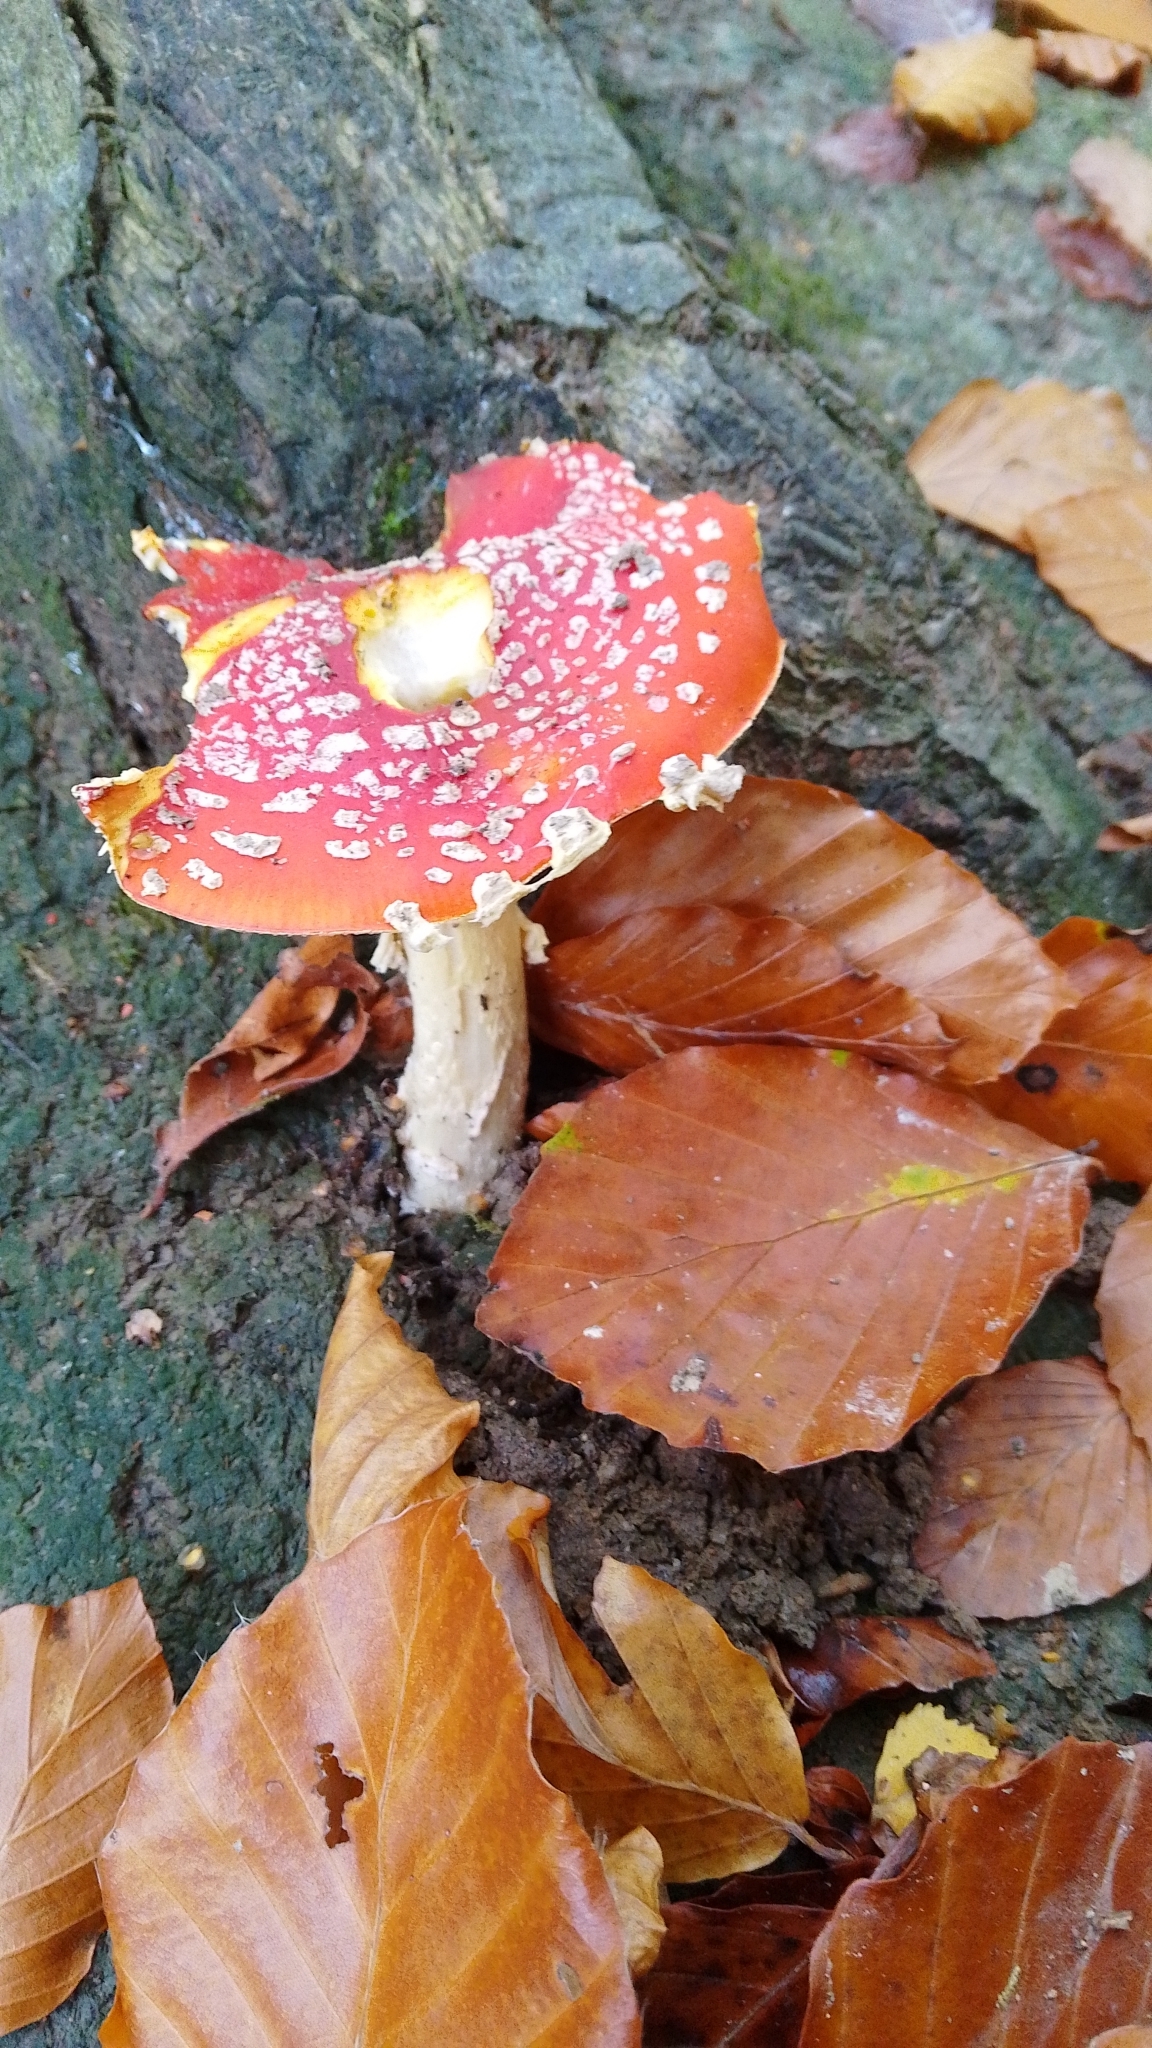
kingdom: Fungi
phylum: Basidiomycota
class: Agaricomycetes
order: Agaricales
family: Amanitaceae
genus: Amanita
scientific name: Amanita muscaria
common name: Fly agaric
